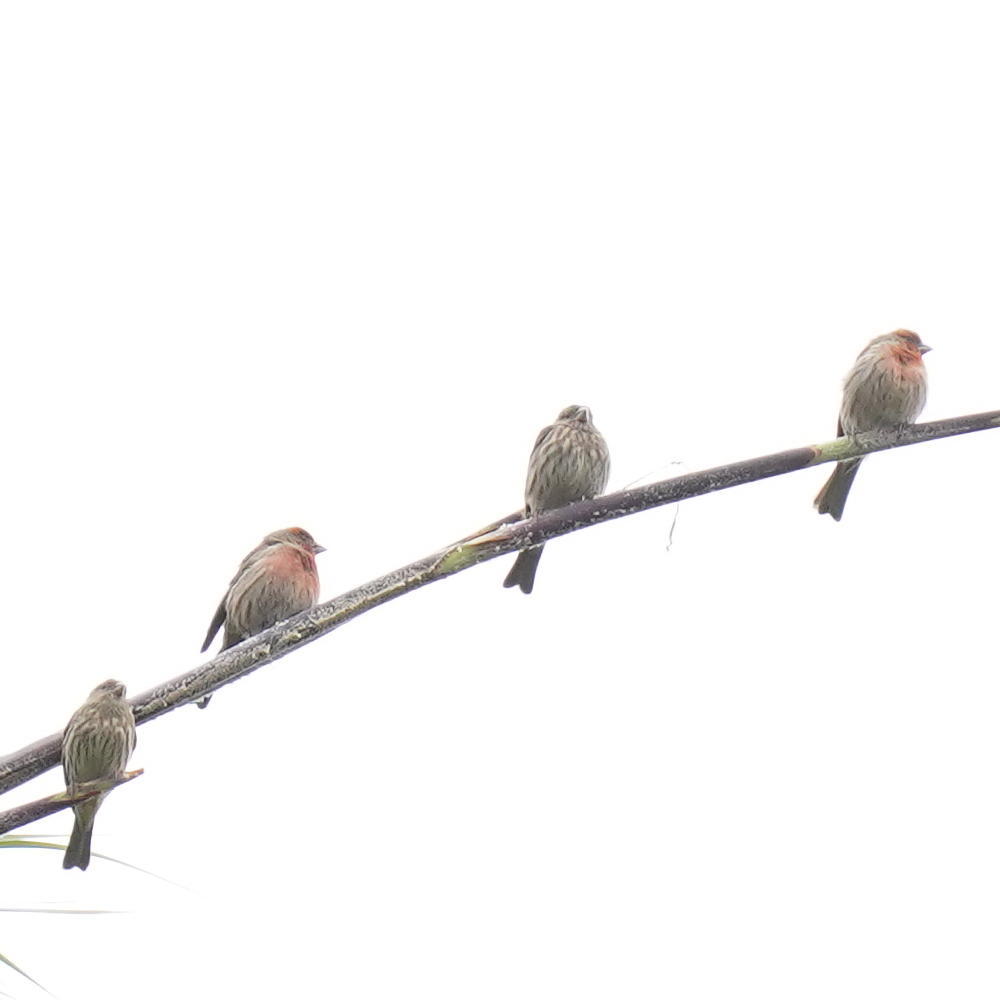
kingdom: Animalia
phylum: Chordata
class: Aves
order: Passeriformes
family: Fringillidae
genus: Haemorhous
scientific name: Haemorhous mexicanus
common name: House finch
